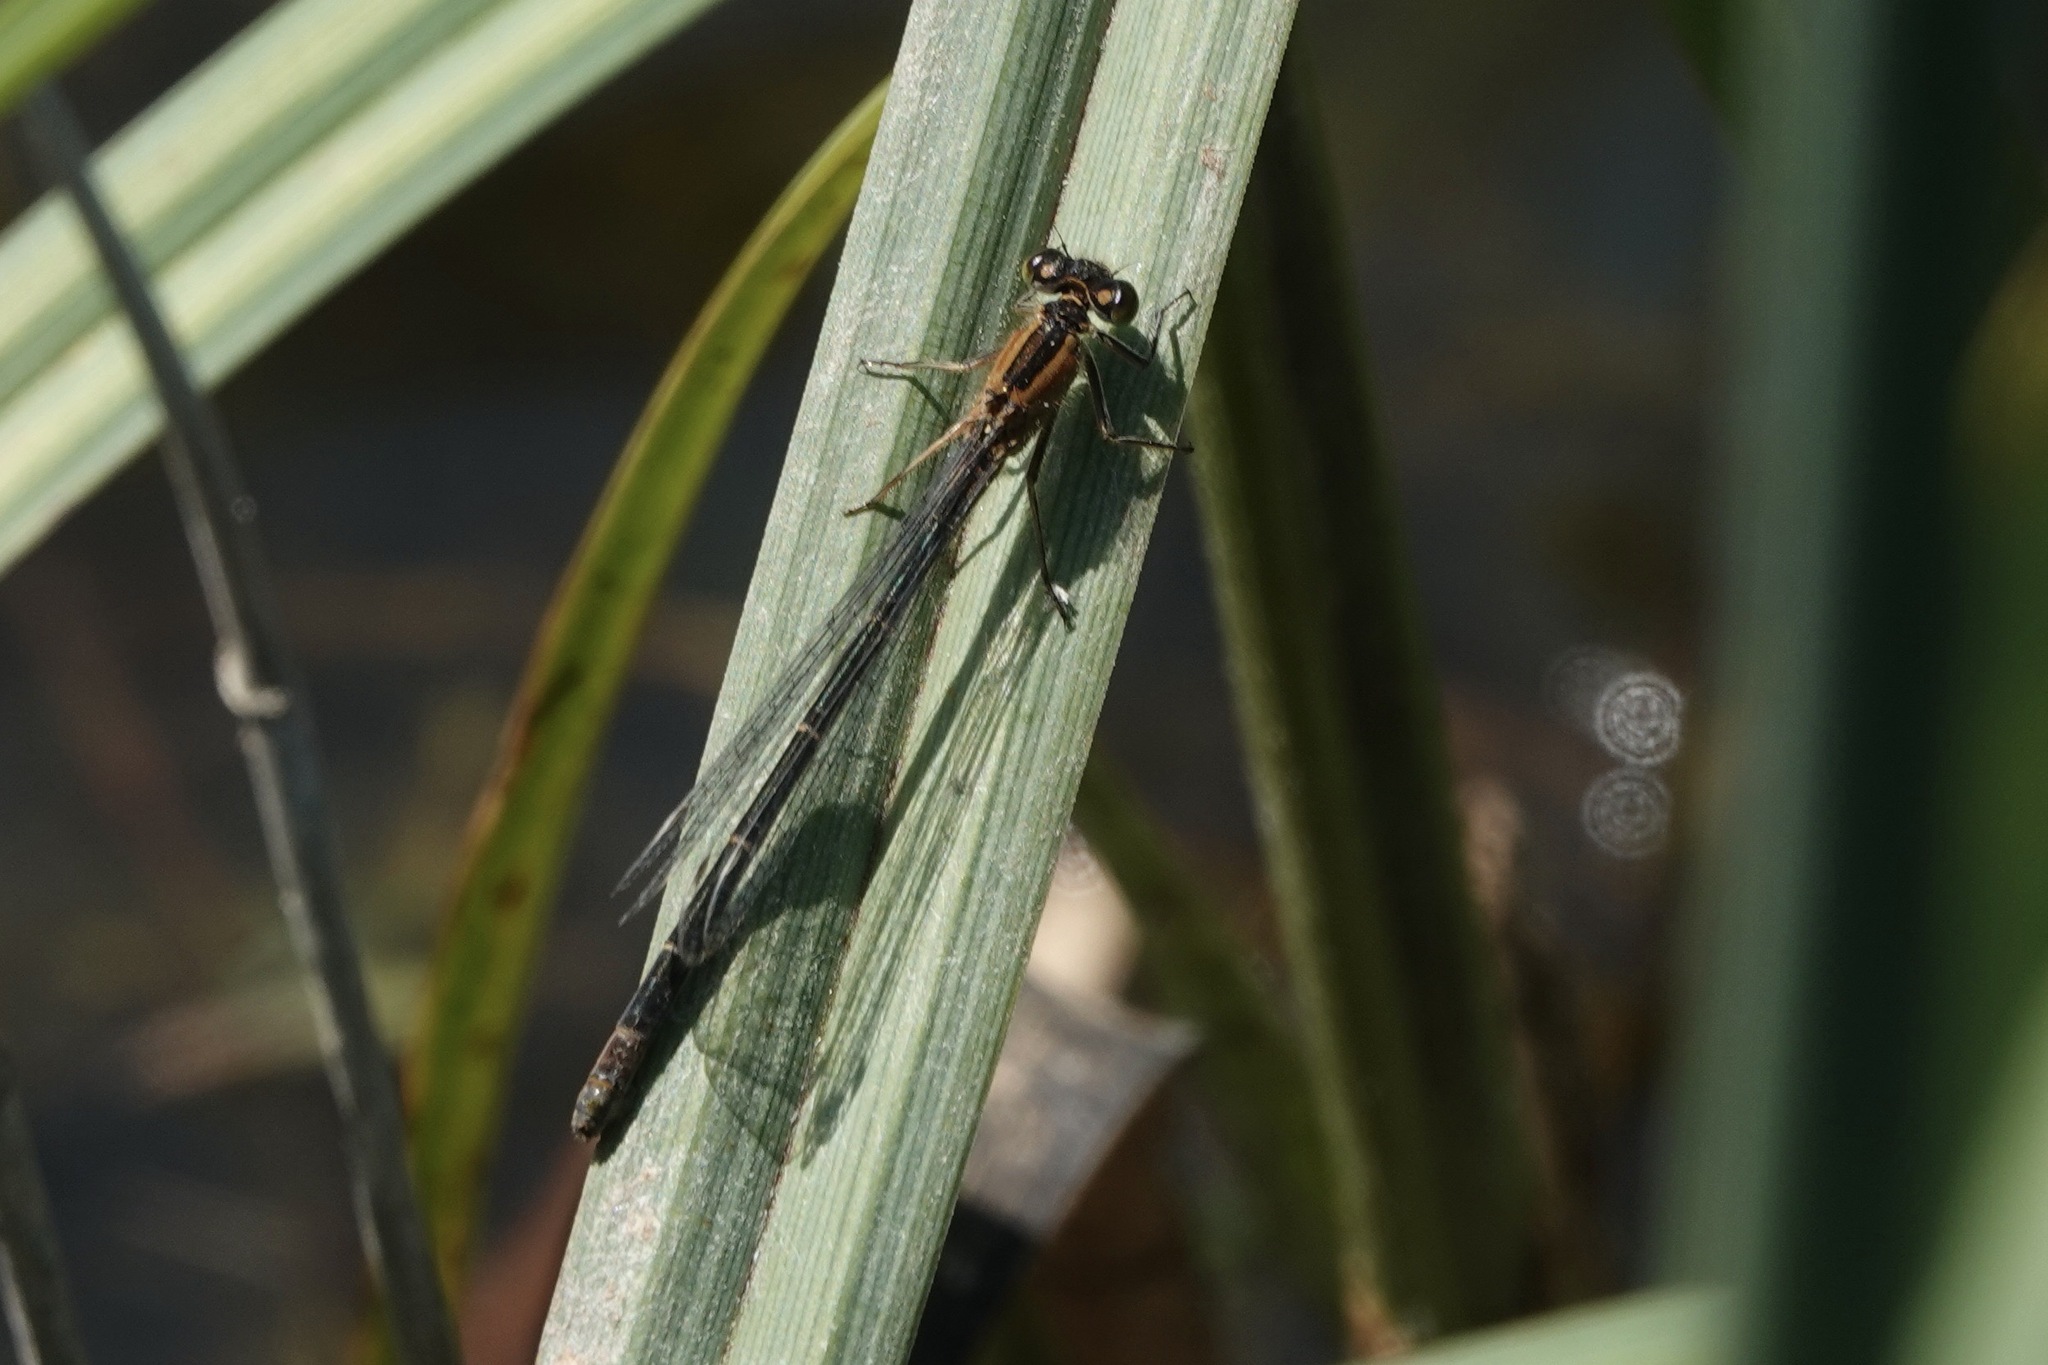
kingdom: Animalia
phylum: Arthropoda
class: Insecta
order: Odonata
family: Coenagrionidae
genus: Ischnura
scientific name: Ischnura elegans
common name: Blue-tailed damselfly
